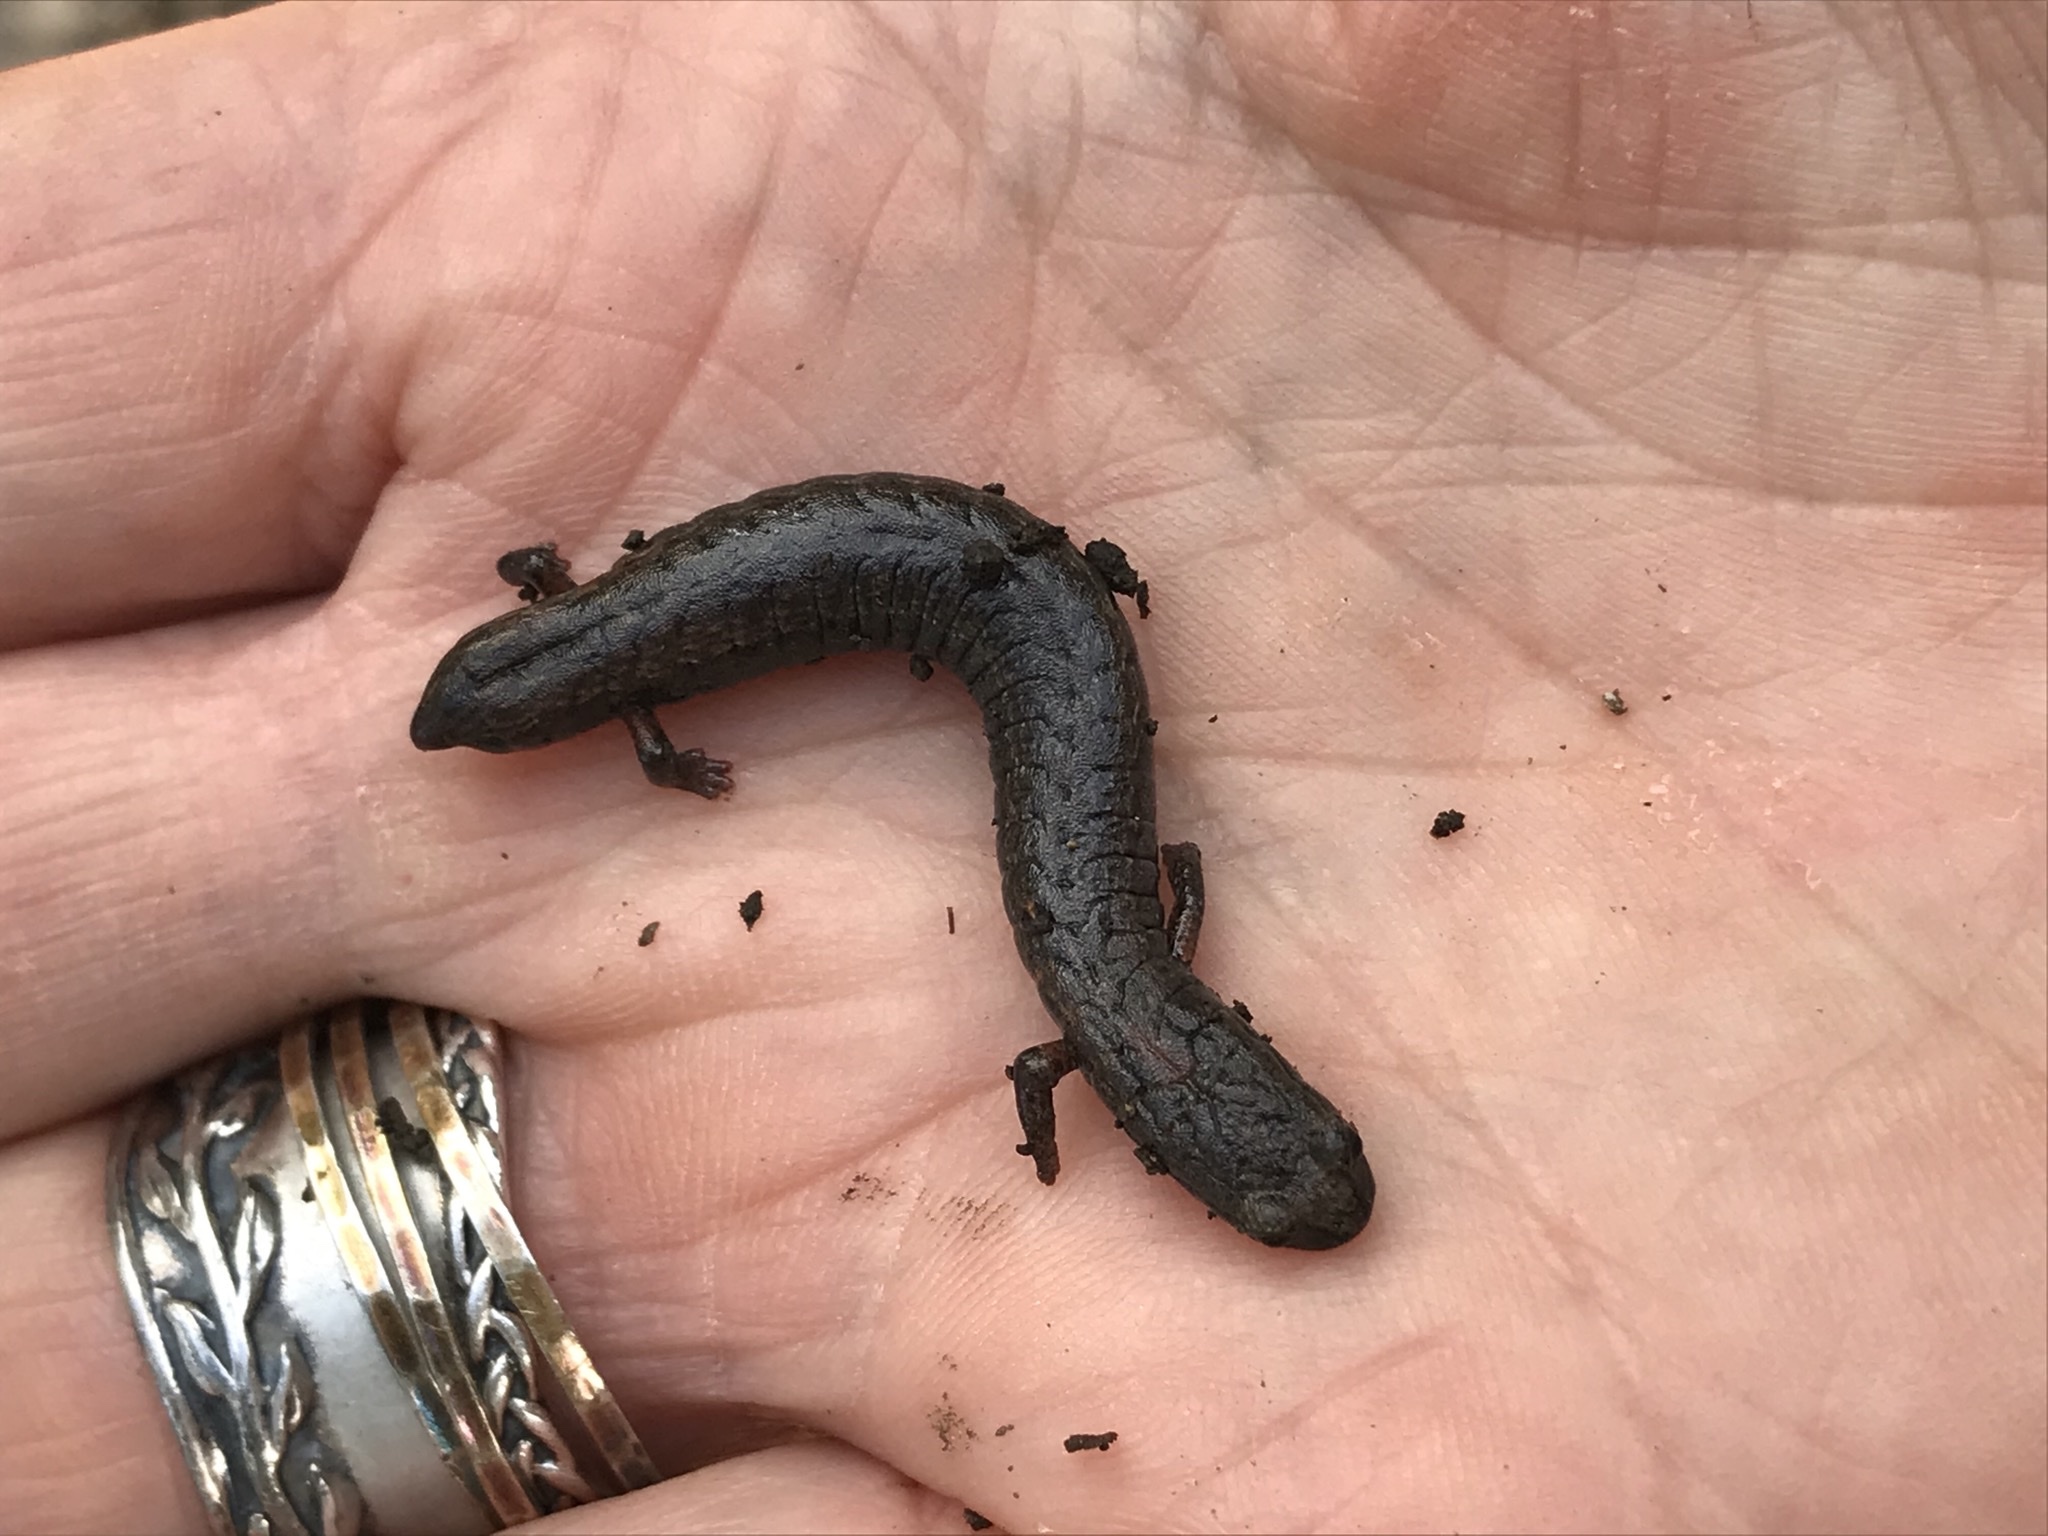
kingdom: Animalia
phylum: Chordata
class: Amphibia
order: Caudata
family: Plethodontidae
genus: Batrachoseps
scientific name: Batrachoseps attenuatus
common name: California slender salamander
